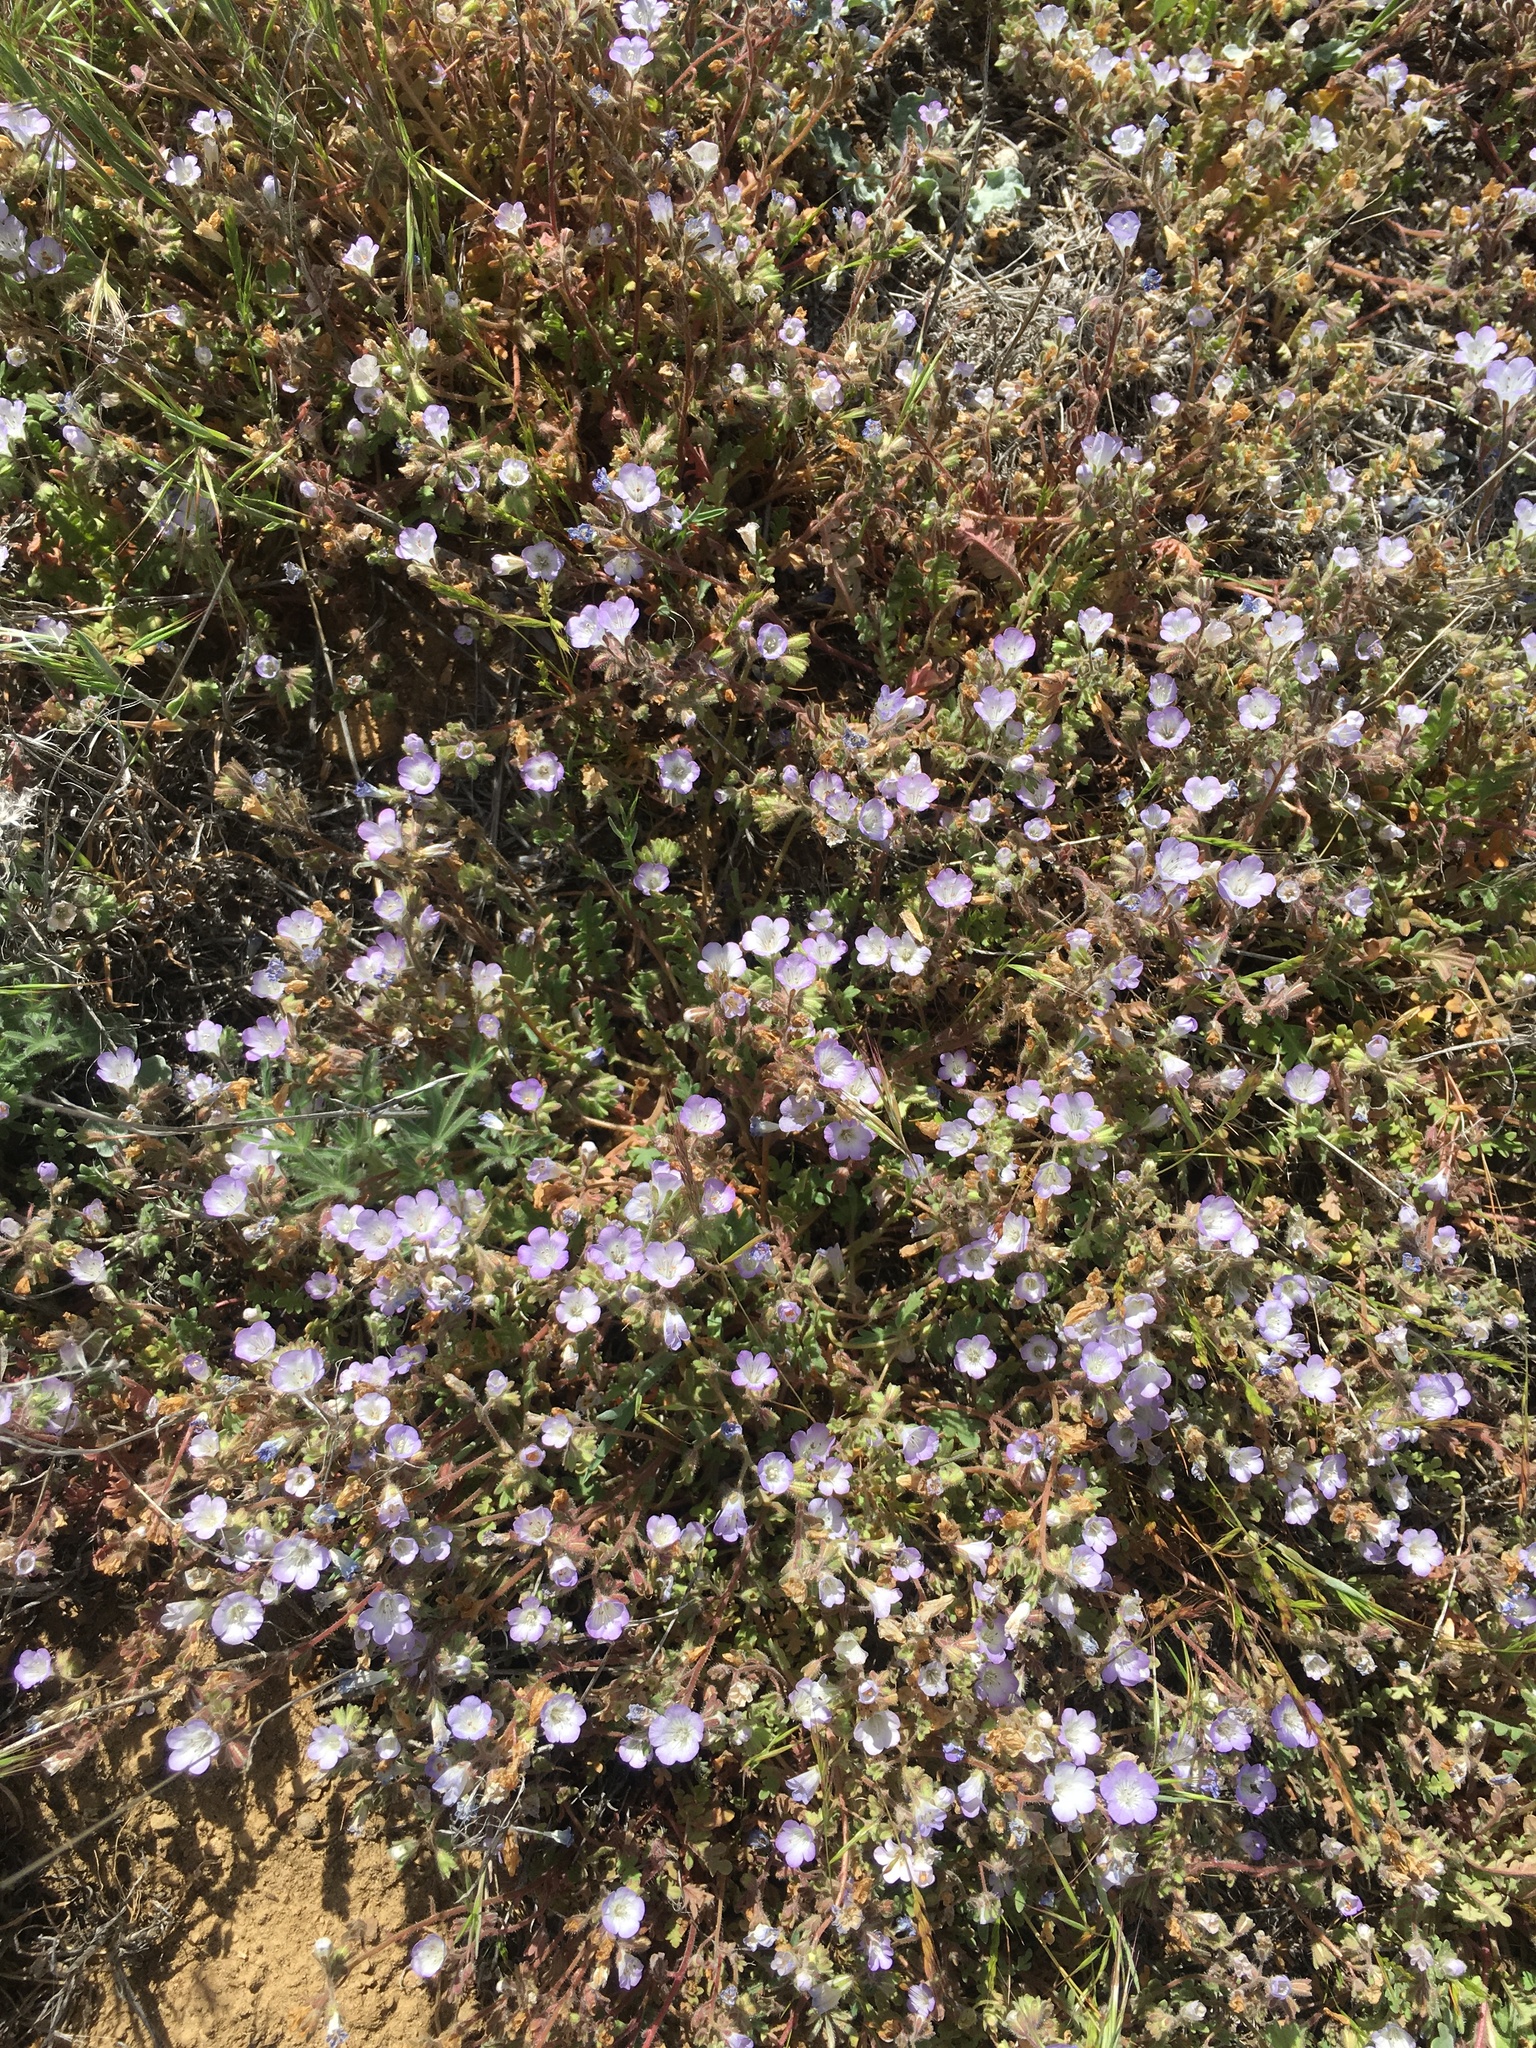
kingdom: Plantae
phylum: Tracheophyta
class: Magnoliopsida
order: Boraginales
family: Hydrophyllaceae
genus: Phacelia
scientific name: Phacelia douglasii
